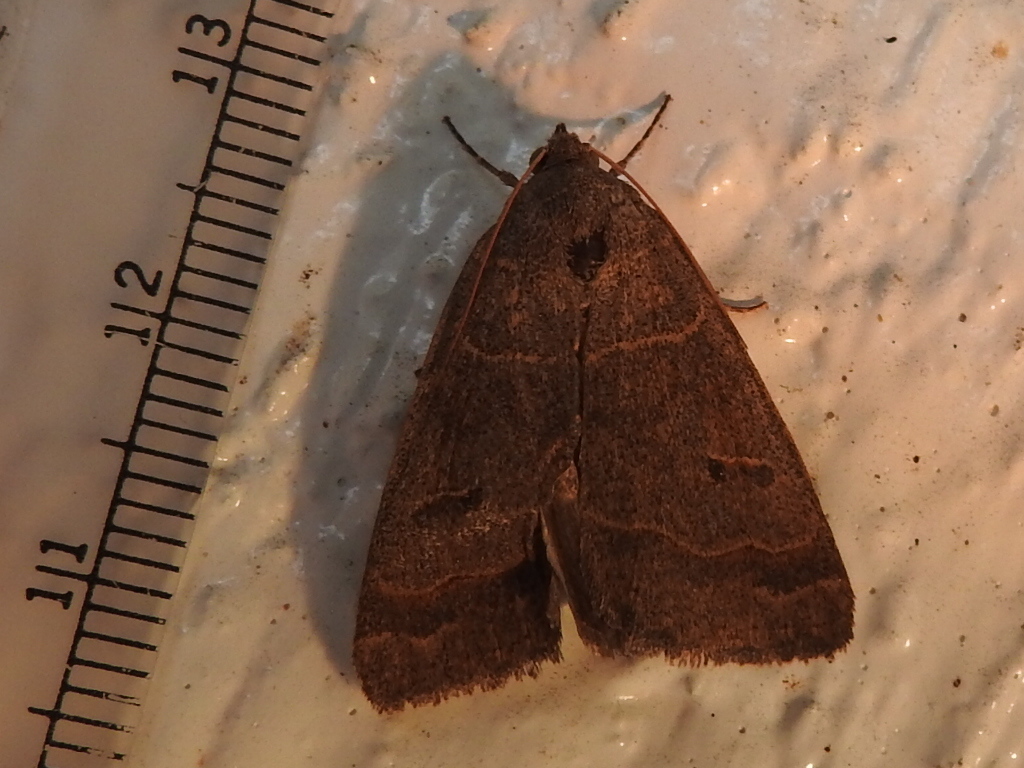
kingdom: Animalia
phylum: Arthropoda
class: Insecta
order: Lepidoptera
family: Erebidae
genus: Phoberia
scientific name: Phoberia atomaris
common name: Common oak moth
